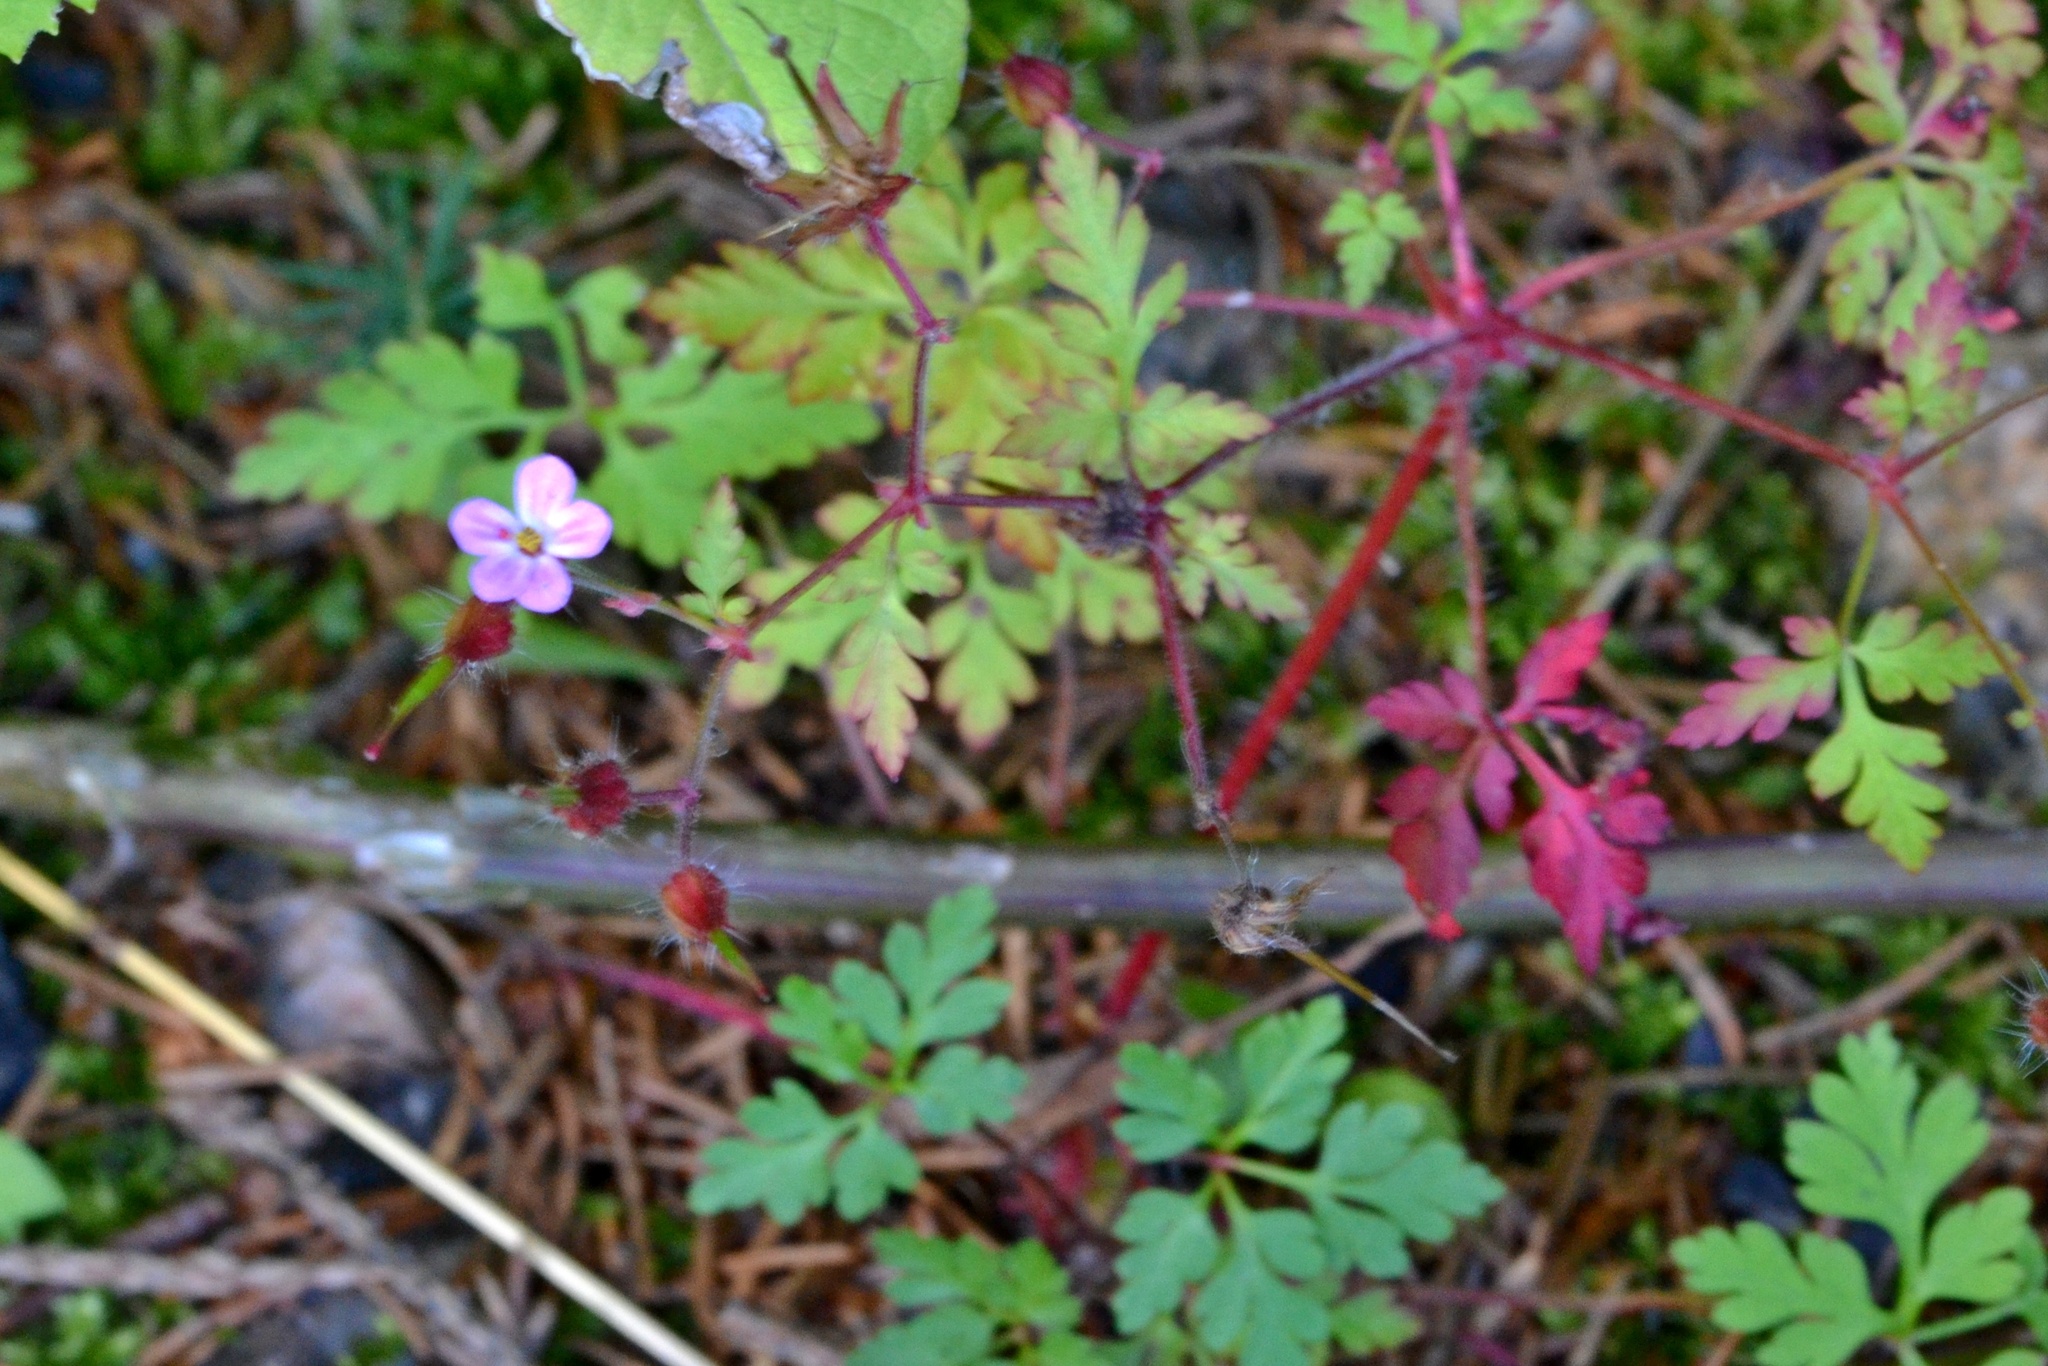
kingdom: Plantae
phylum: Tracheophyta
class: Magnoliopsida
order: Geraniales
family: Geraniaceae
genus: Geranium
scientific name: Geranium robertianum
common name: Herb-robert
